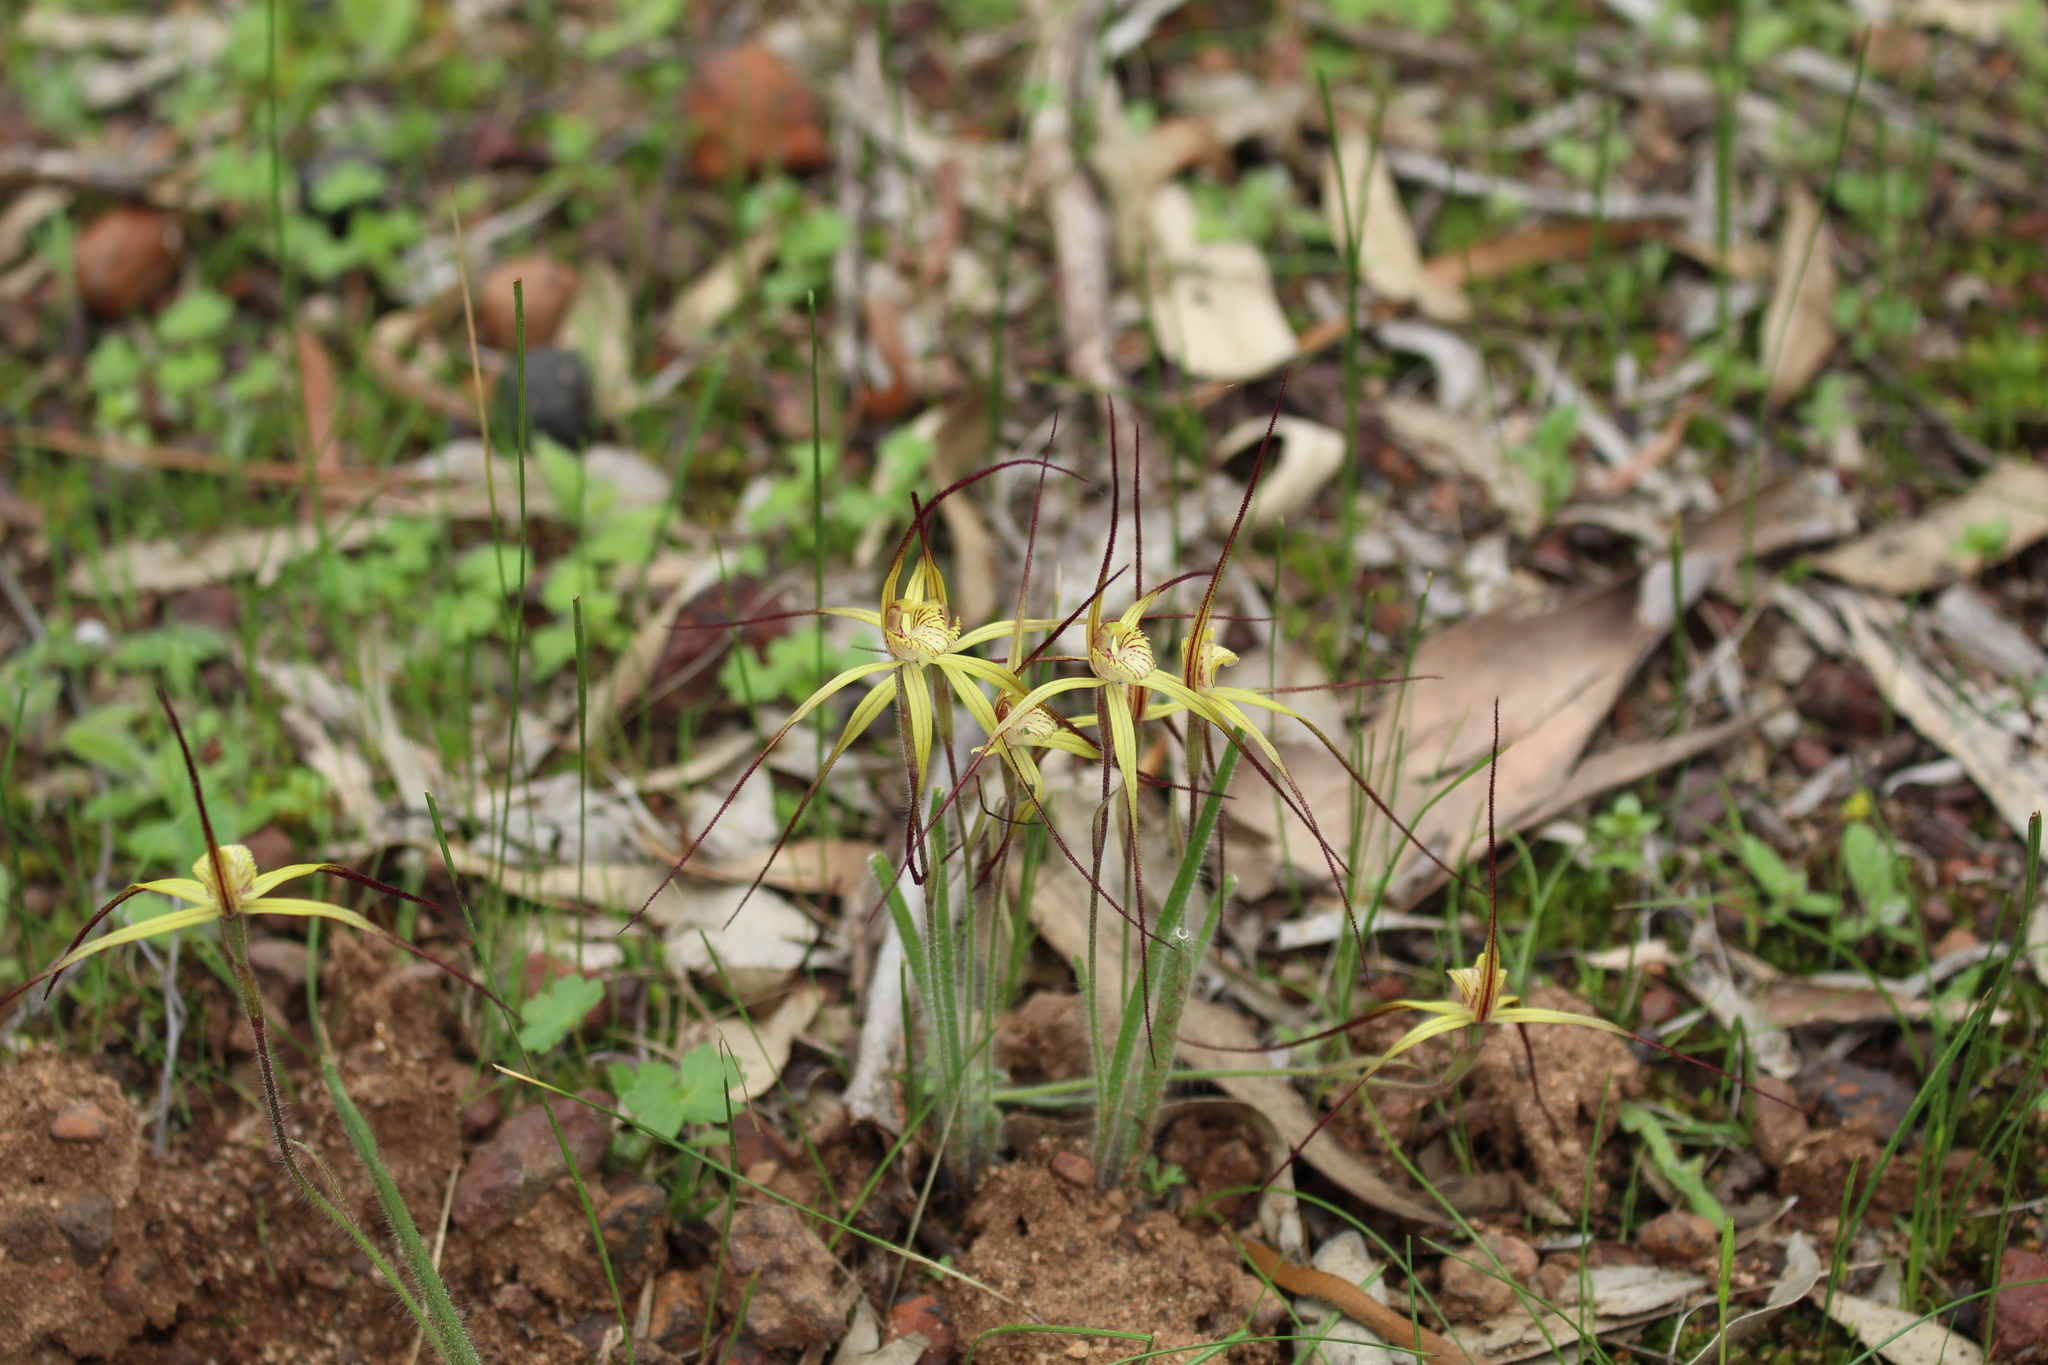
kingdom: Plantae
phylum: Tracheophyta
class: Liliopsida
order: Asparagales
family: Orchidaceae
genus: Caladenia
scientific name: Caladenia xantha
